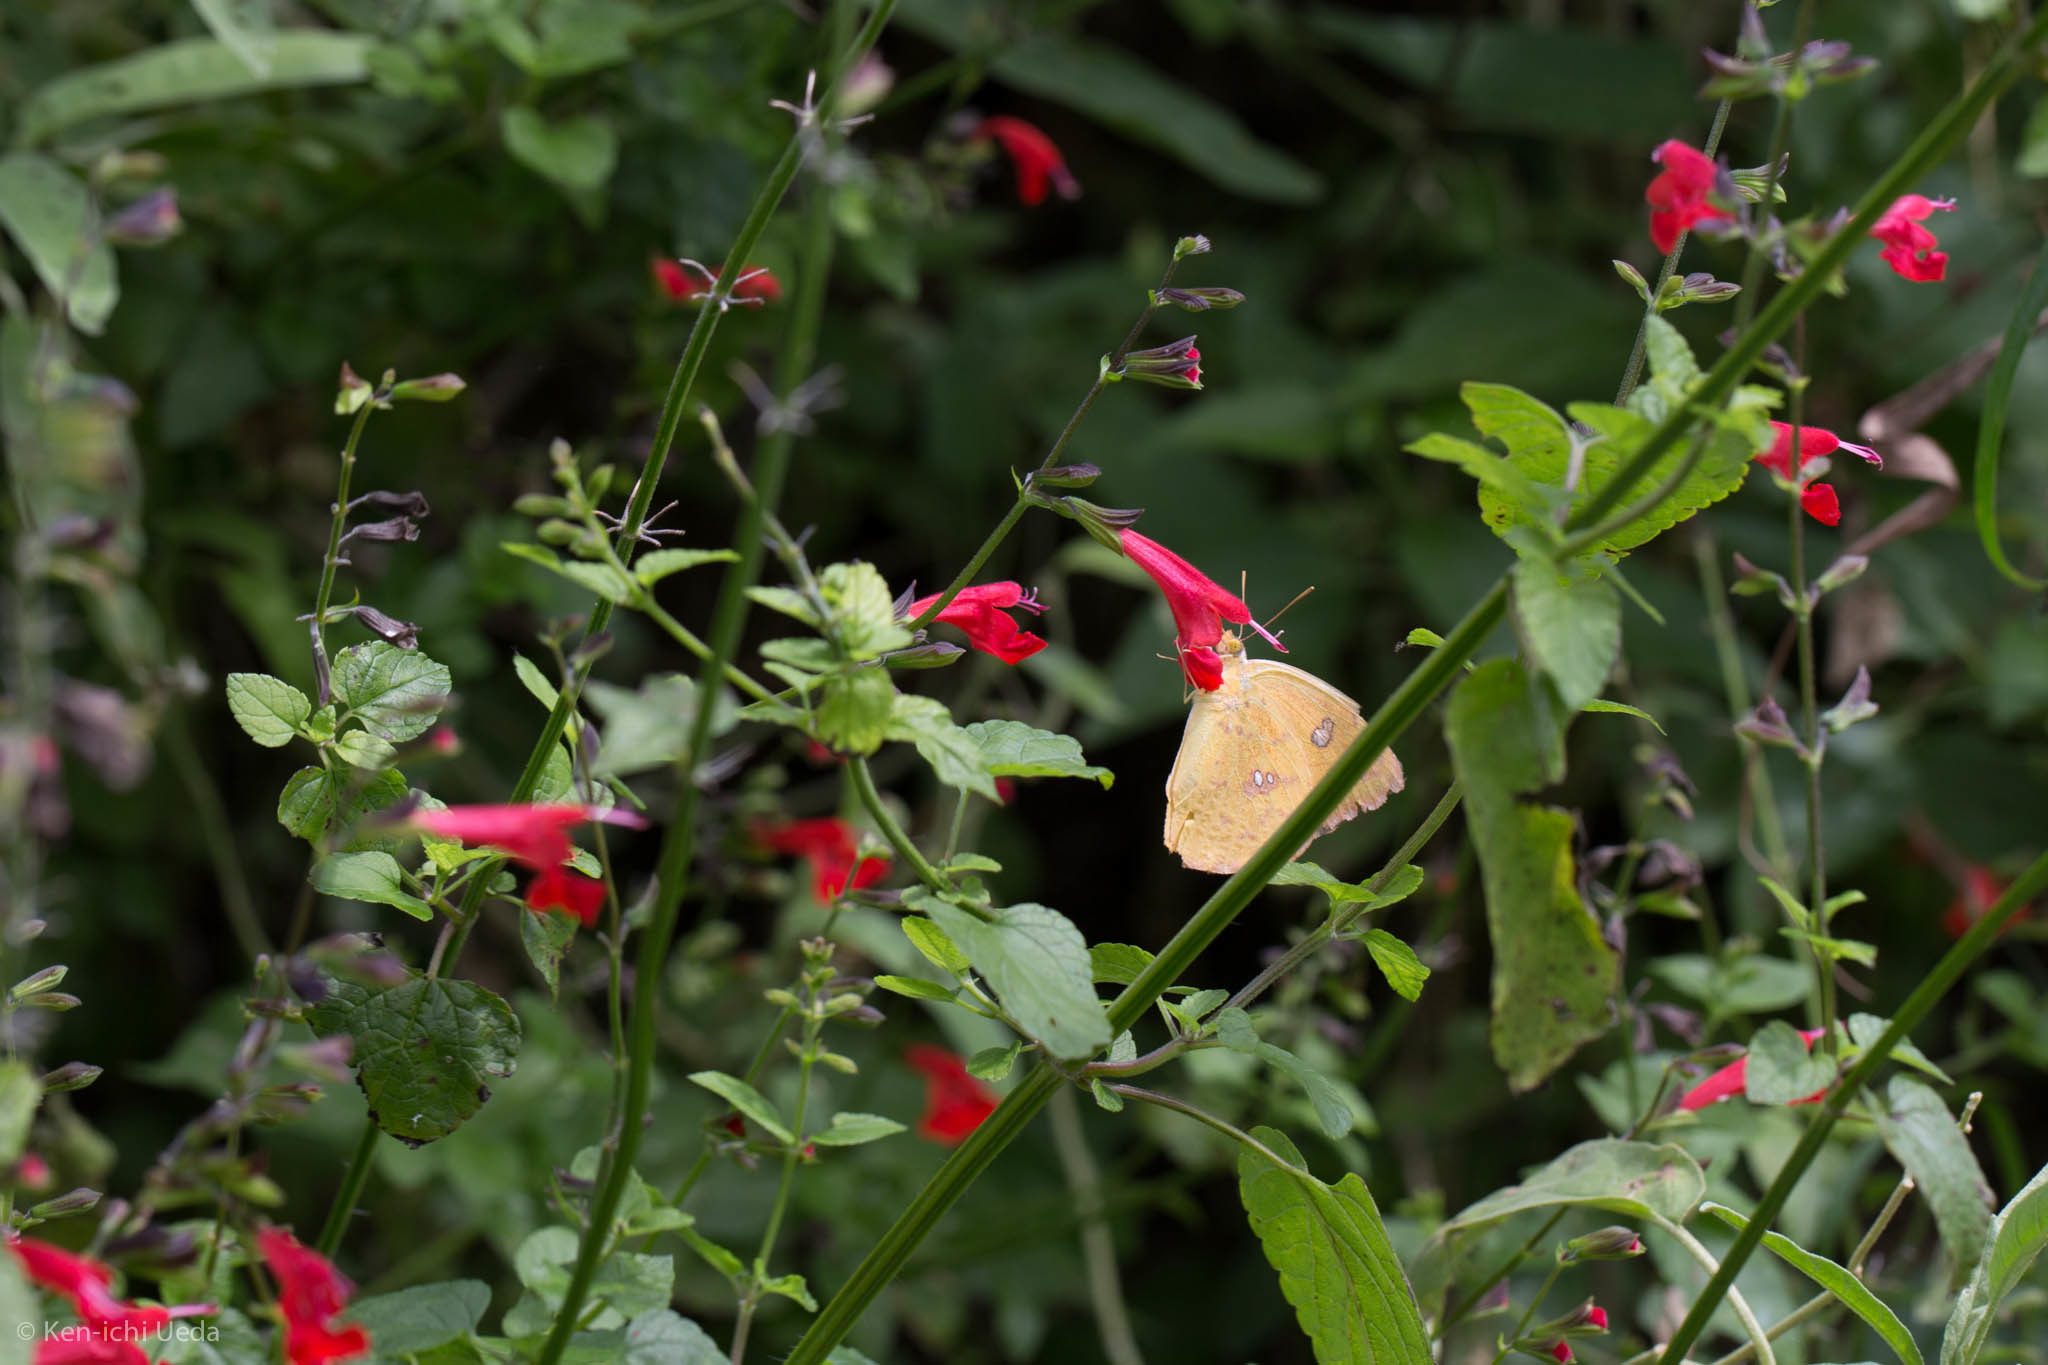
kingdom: Plantae
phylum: Tracheophyta
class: Magnoliopsida
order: Lamiales
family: Lamiaceae
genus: Salvia
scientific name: Salvia coccinea
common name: Blood sage
